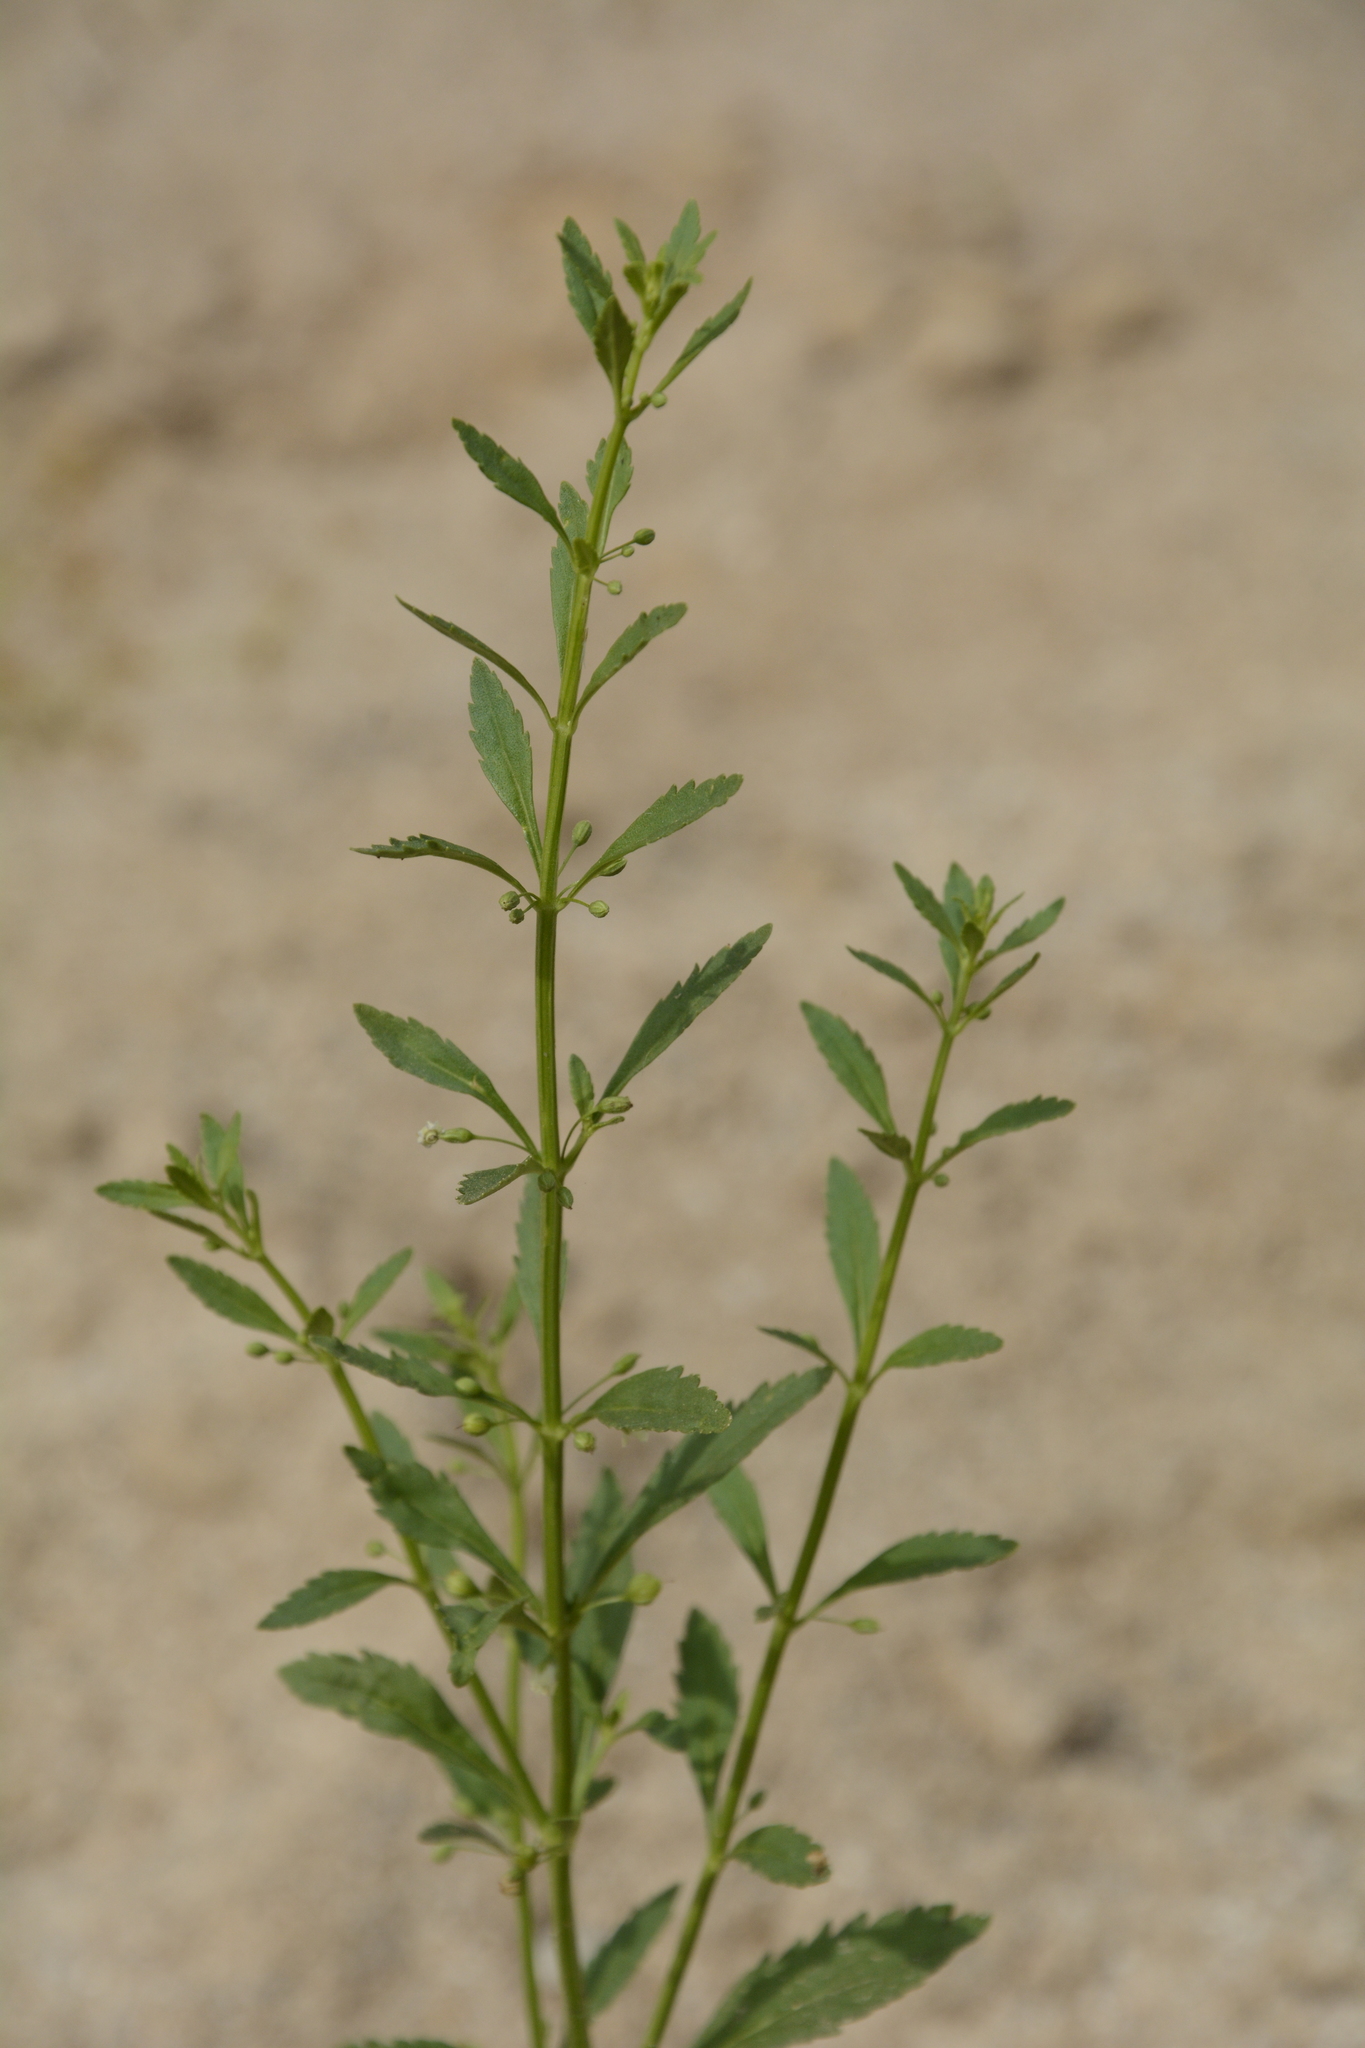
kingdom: Plantae
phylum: Tracheophyta
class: Magnoliopsida
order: Lamiales
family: Plantaginaceae
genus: Scoparia
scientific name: Scoparia dulcis
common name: Scoparia-weed
